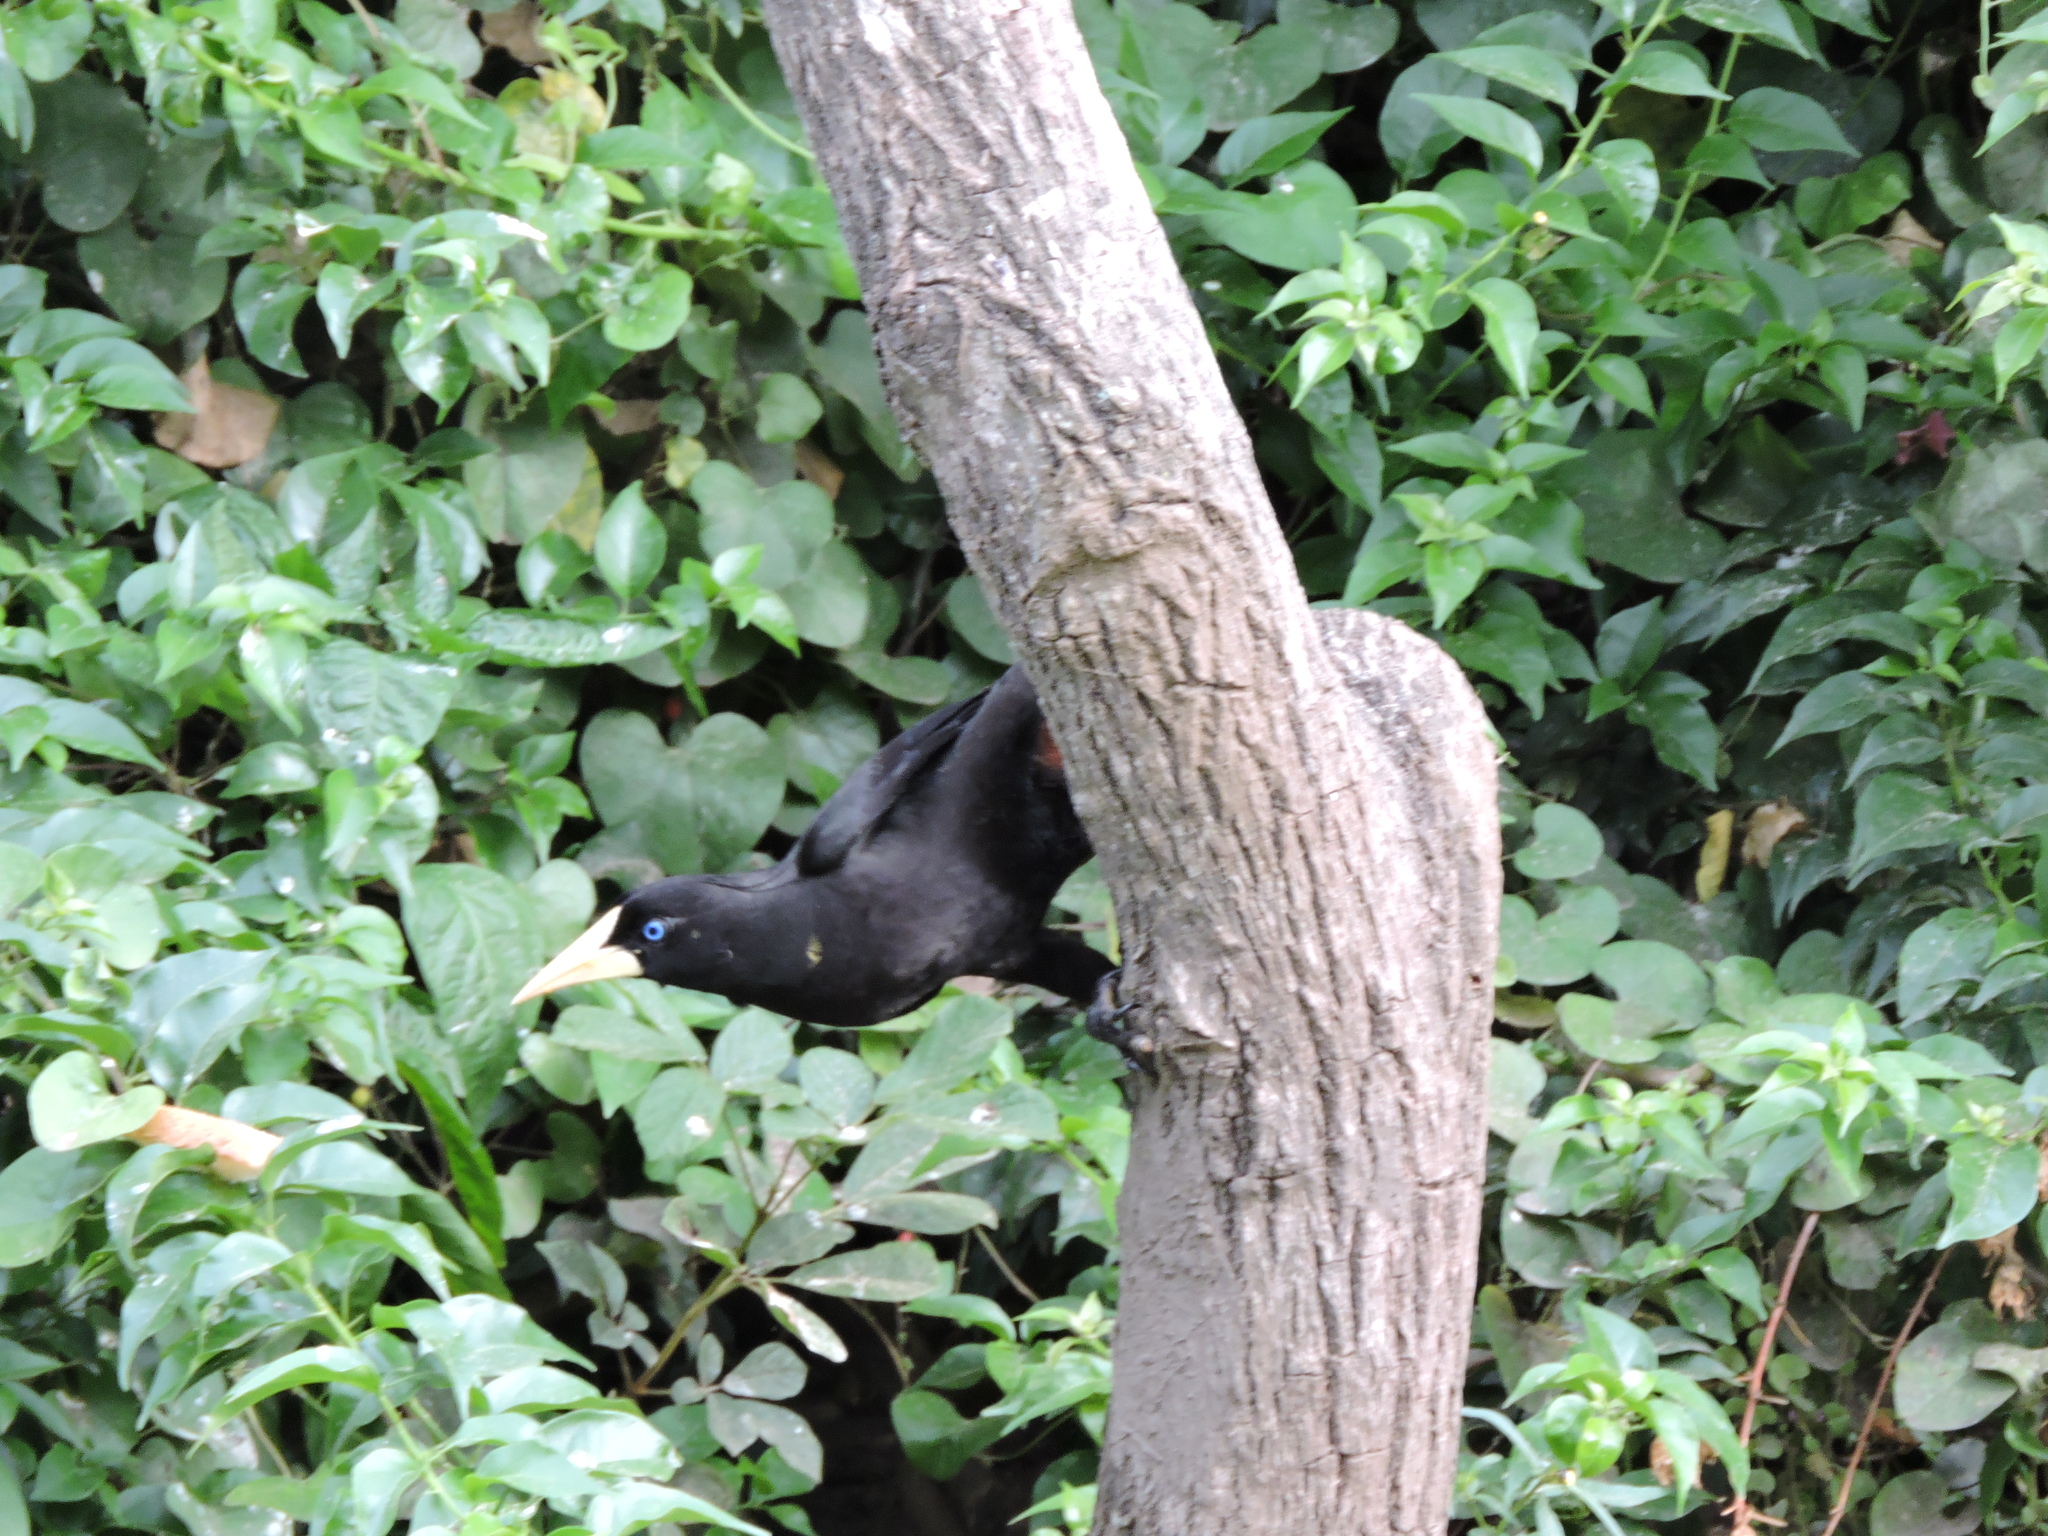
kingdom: Animalia
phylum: Chordata
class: Aves
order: Passeriformes
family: Icteridae
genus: Psarocolius
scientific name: Psarocolius decumanus
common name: Crested oropendola
